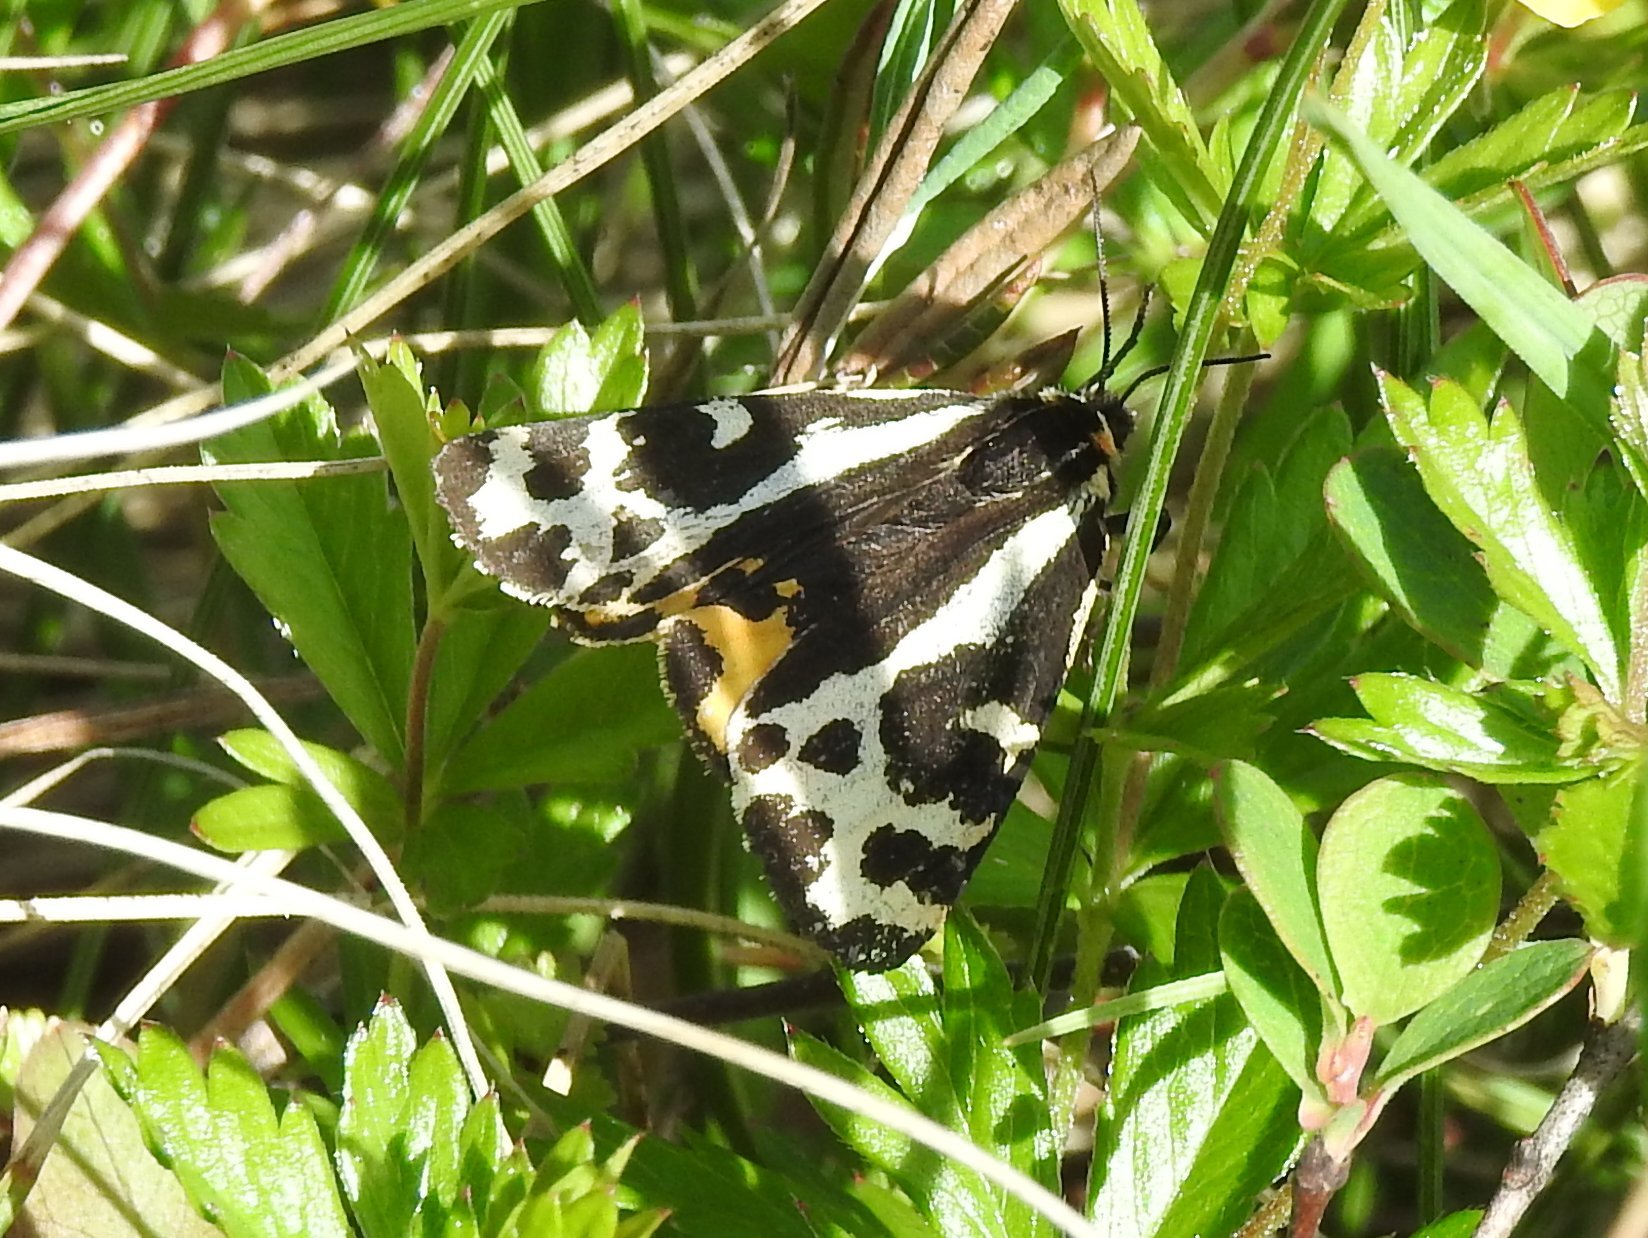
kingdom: Animalia
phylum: Arthropoda
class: Insecta
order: Lepidoptera
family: Erebidae
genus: Parasemia
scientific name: Parasemia plantaginis
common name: Wood tiger
